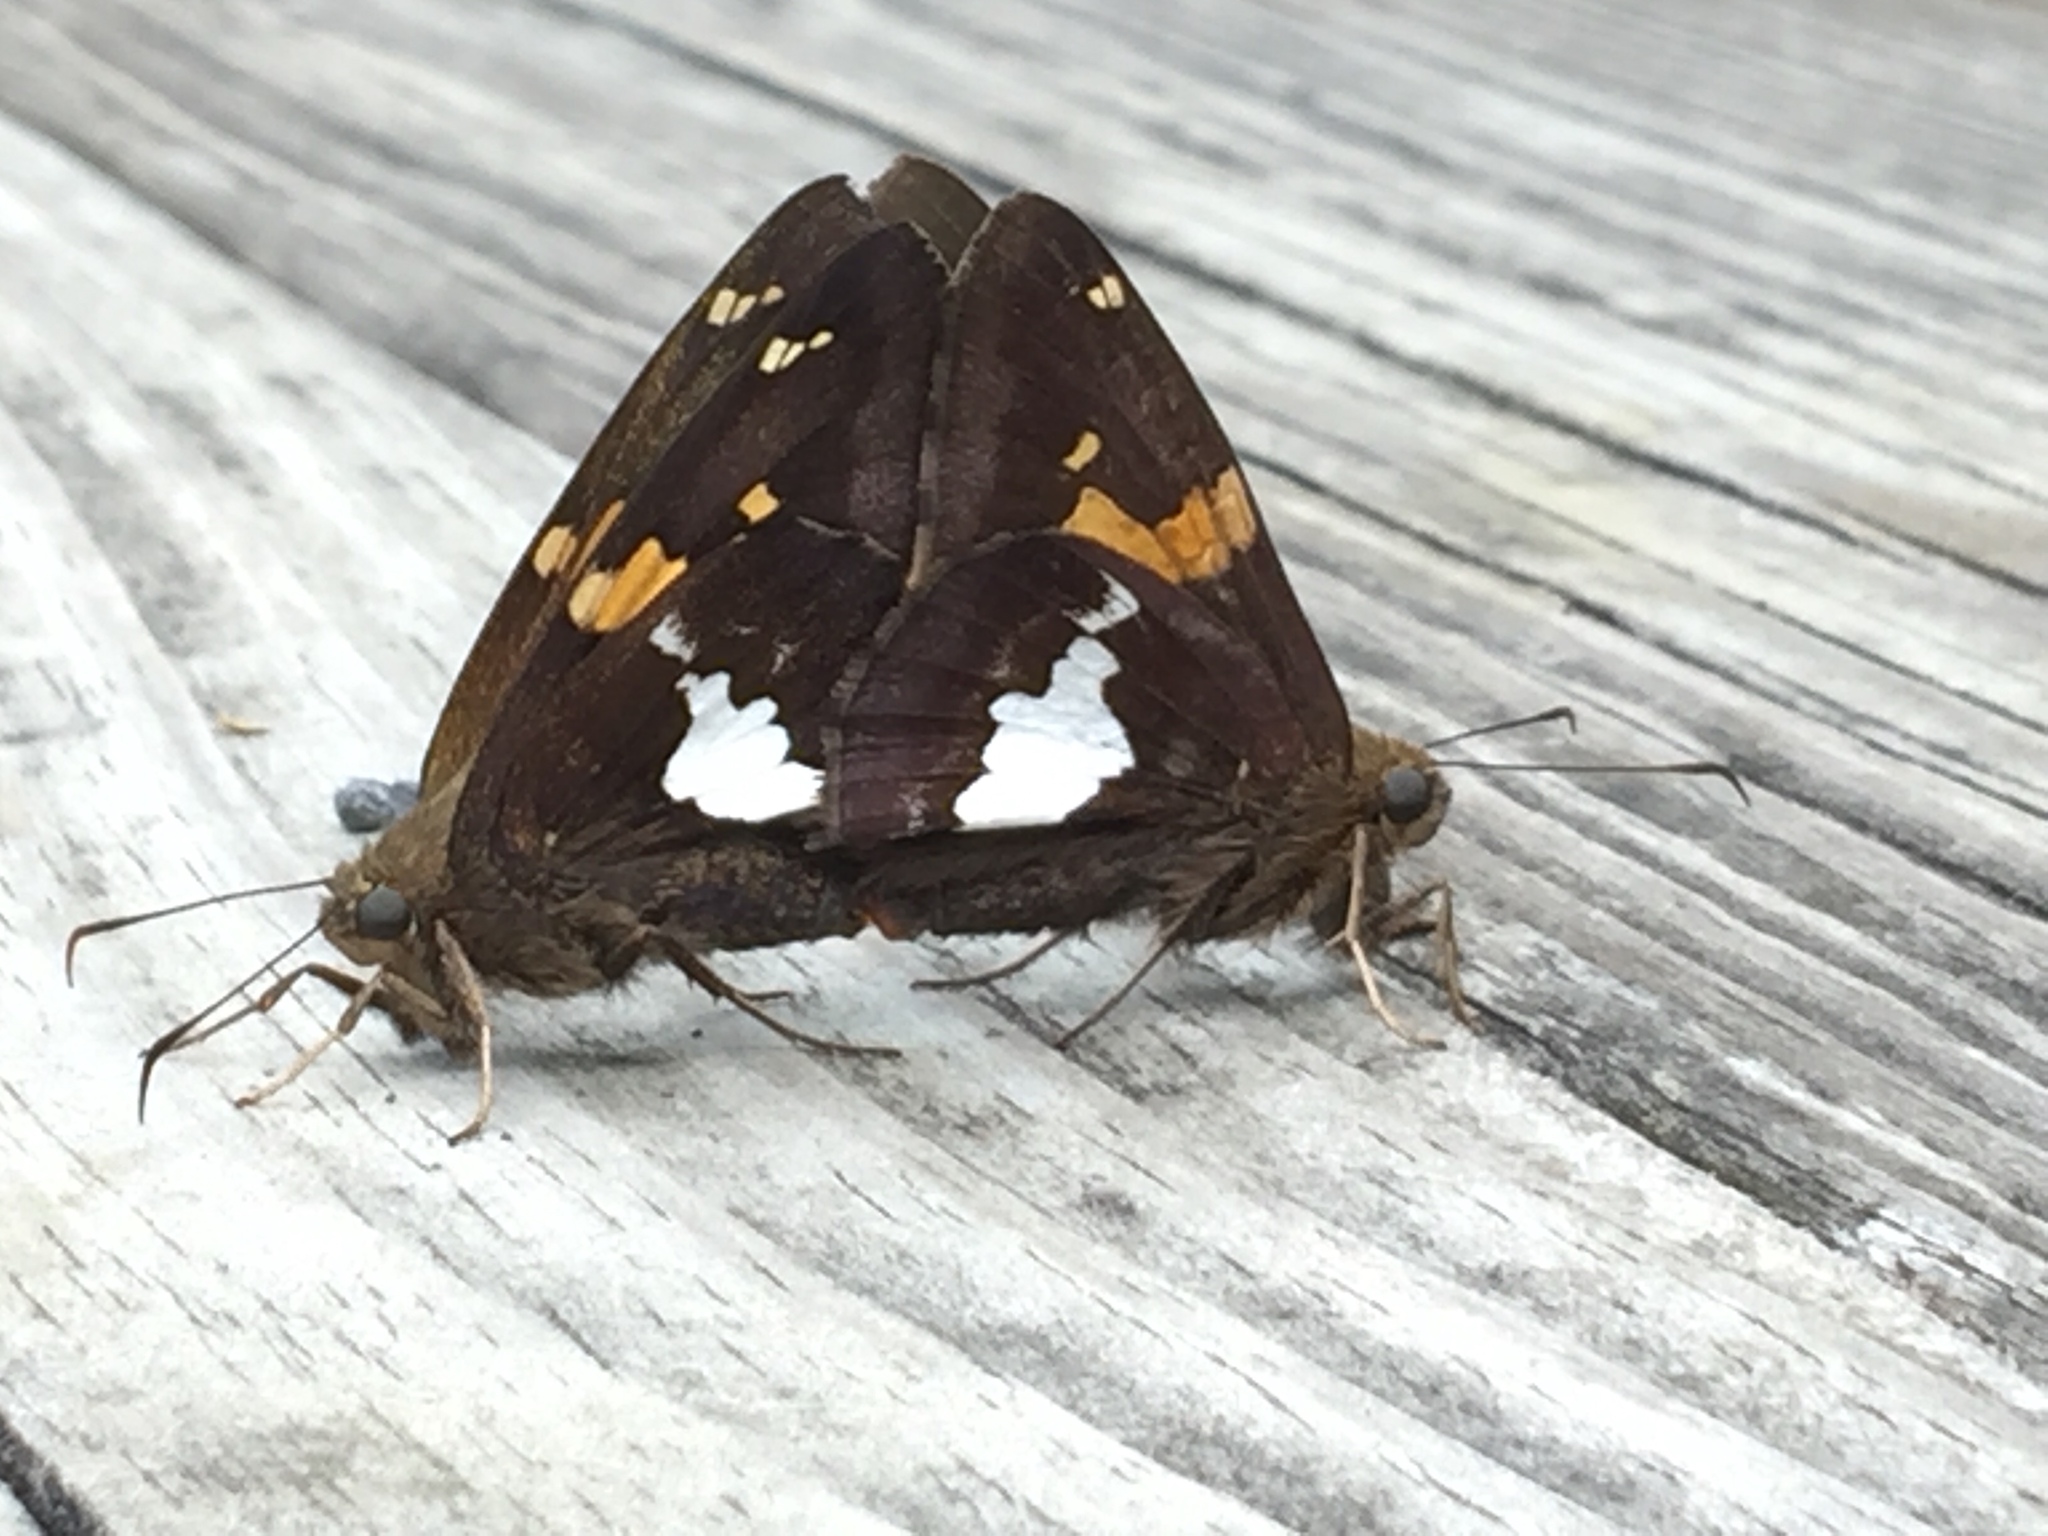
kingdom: Animalia
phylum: Arthropoda
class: Insecta
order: Lepidoptera
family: Hesperiidae
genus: Epargyreus
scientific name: Epargyreus clarus
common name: Silver-spotted skipper
